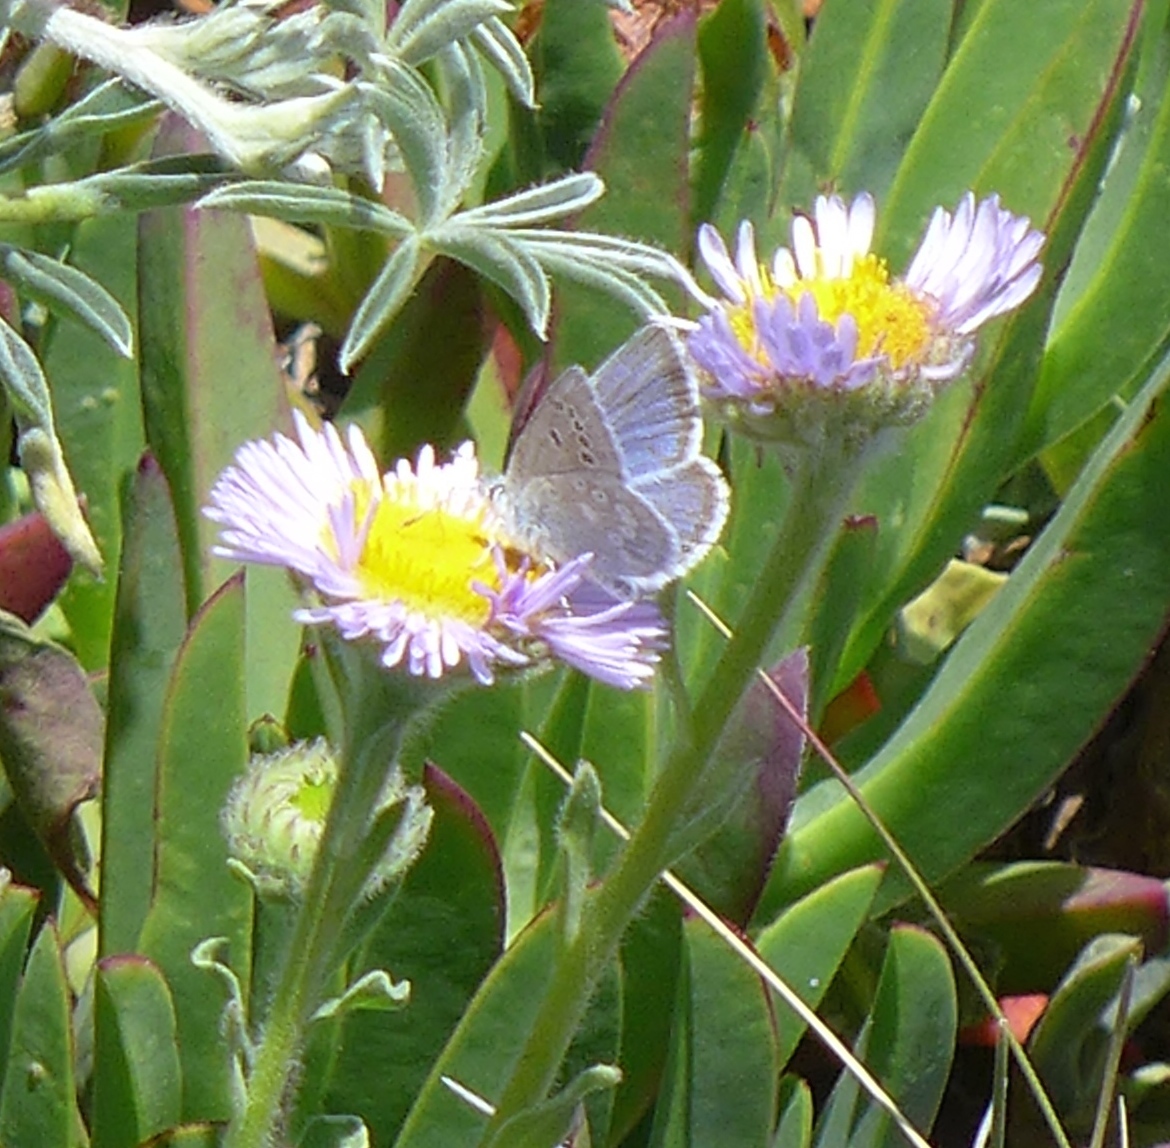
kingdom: Animalia
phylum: Arthropoda
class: Insecta
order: Lepidoptera
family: Lycaenidae
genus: Icaricia
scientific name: Icaricia icarioides
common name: Boisduval's blue
